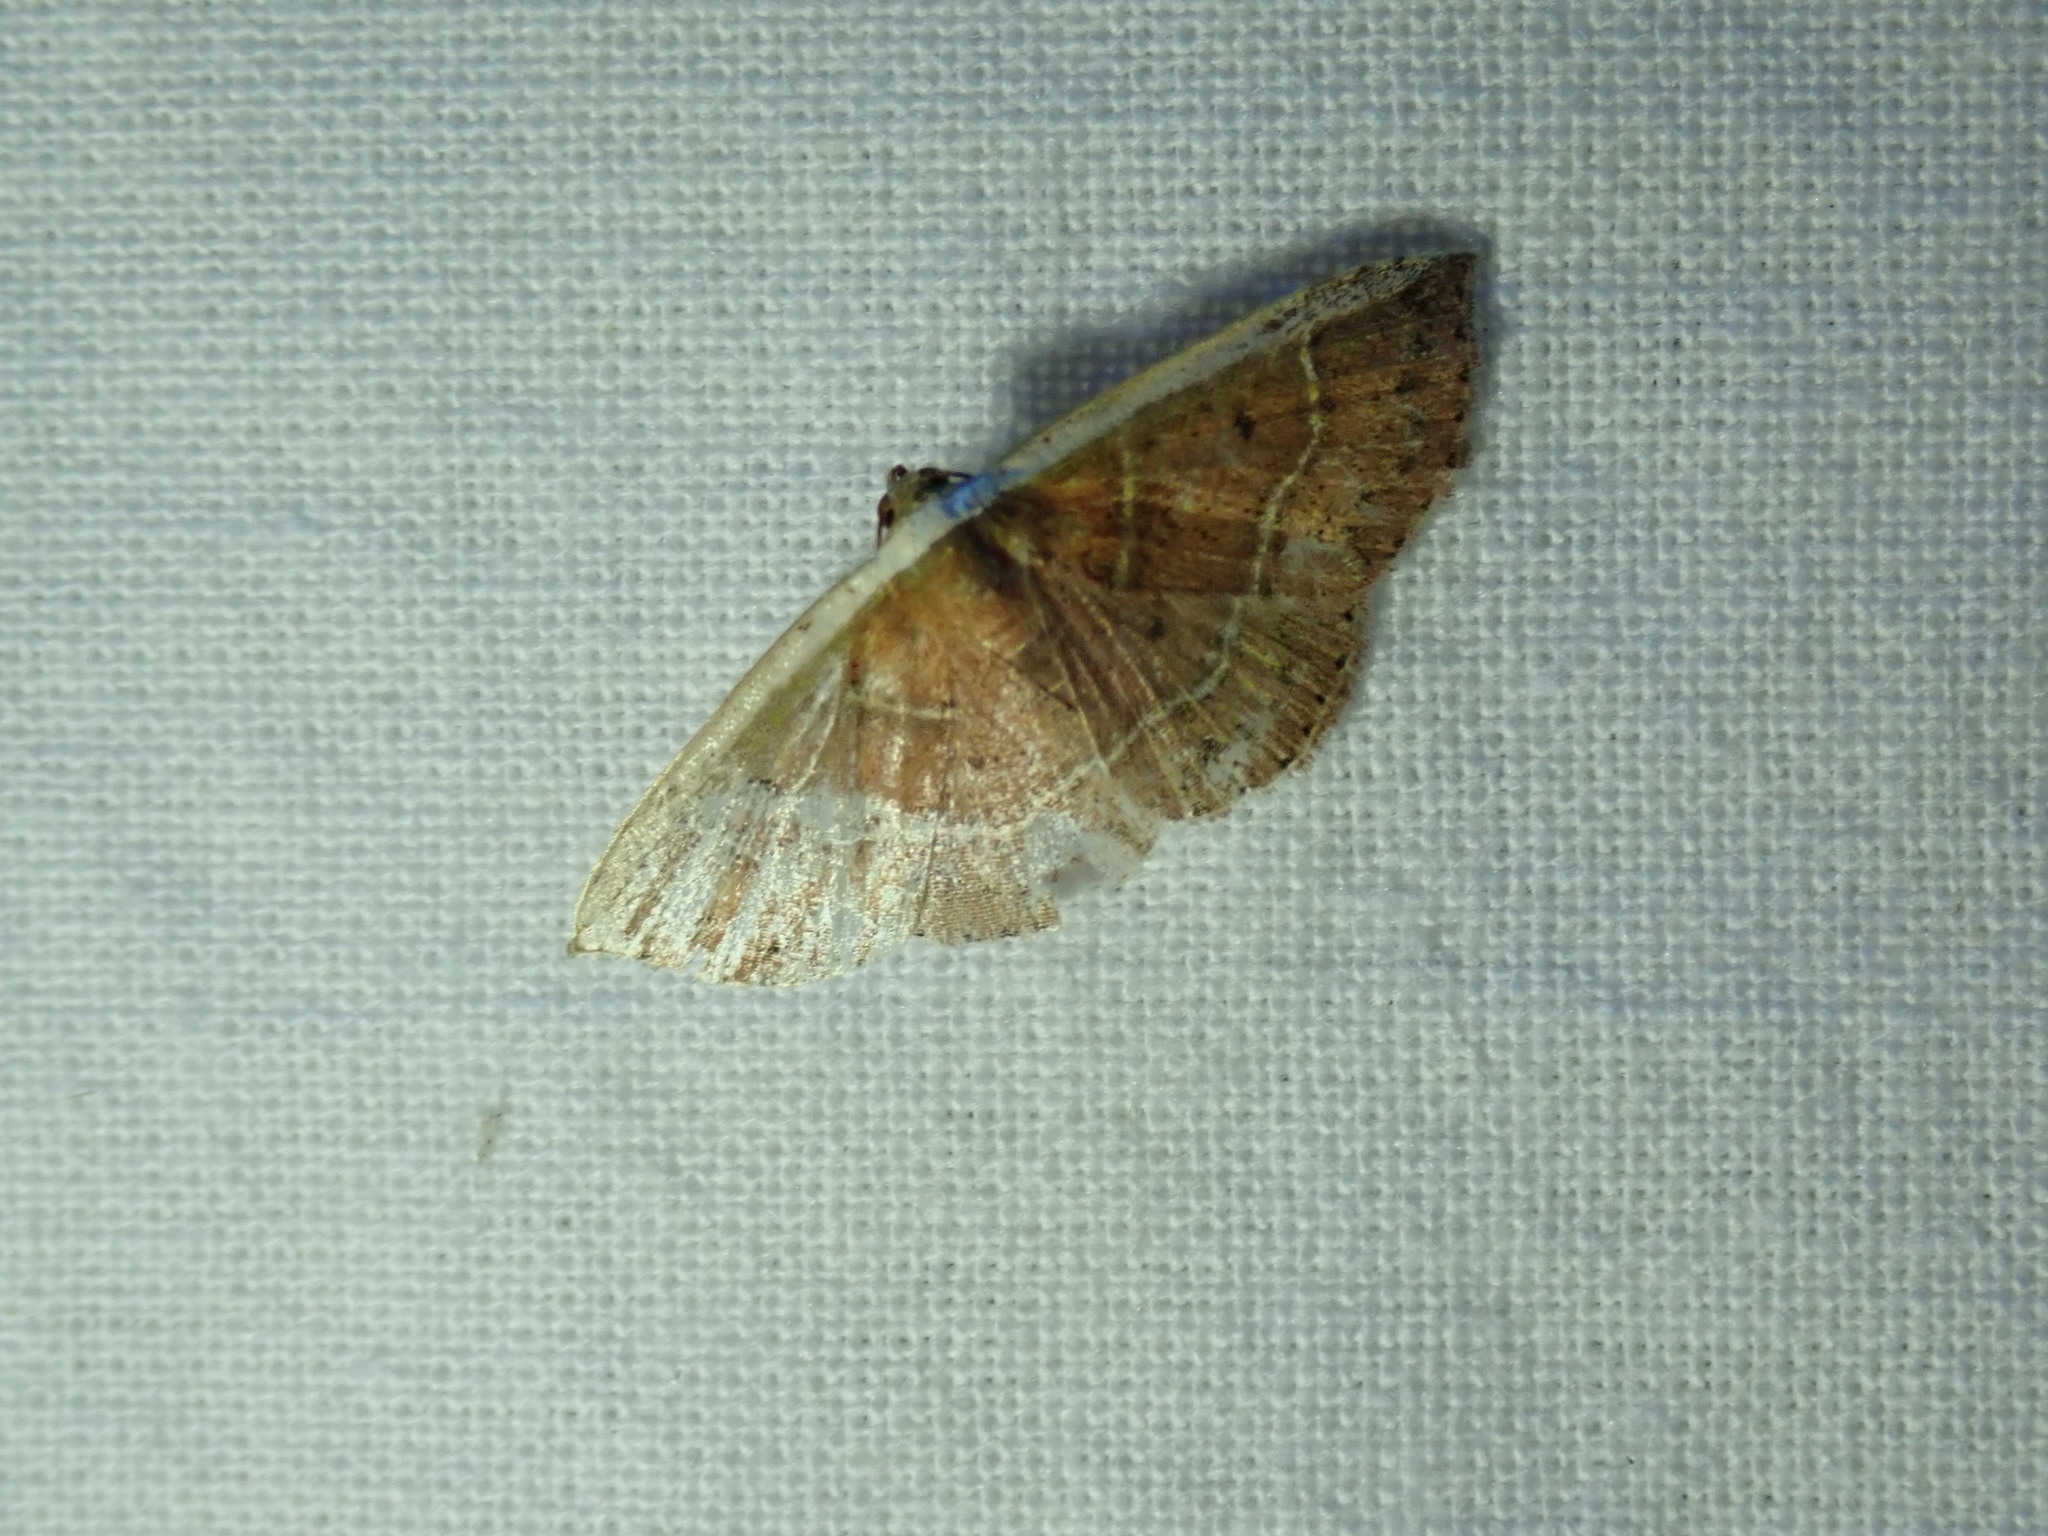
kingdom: Animalia
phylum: Arthropoda
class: Insecta
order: Lepidoptera
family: Noctuidae
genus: Ozarba
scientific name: Ozarba albocostaliata
